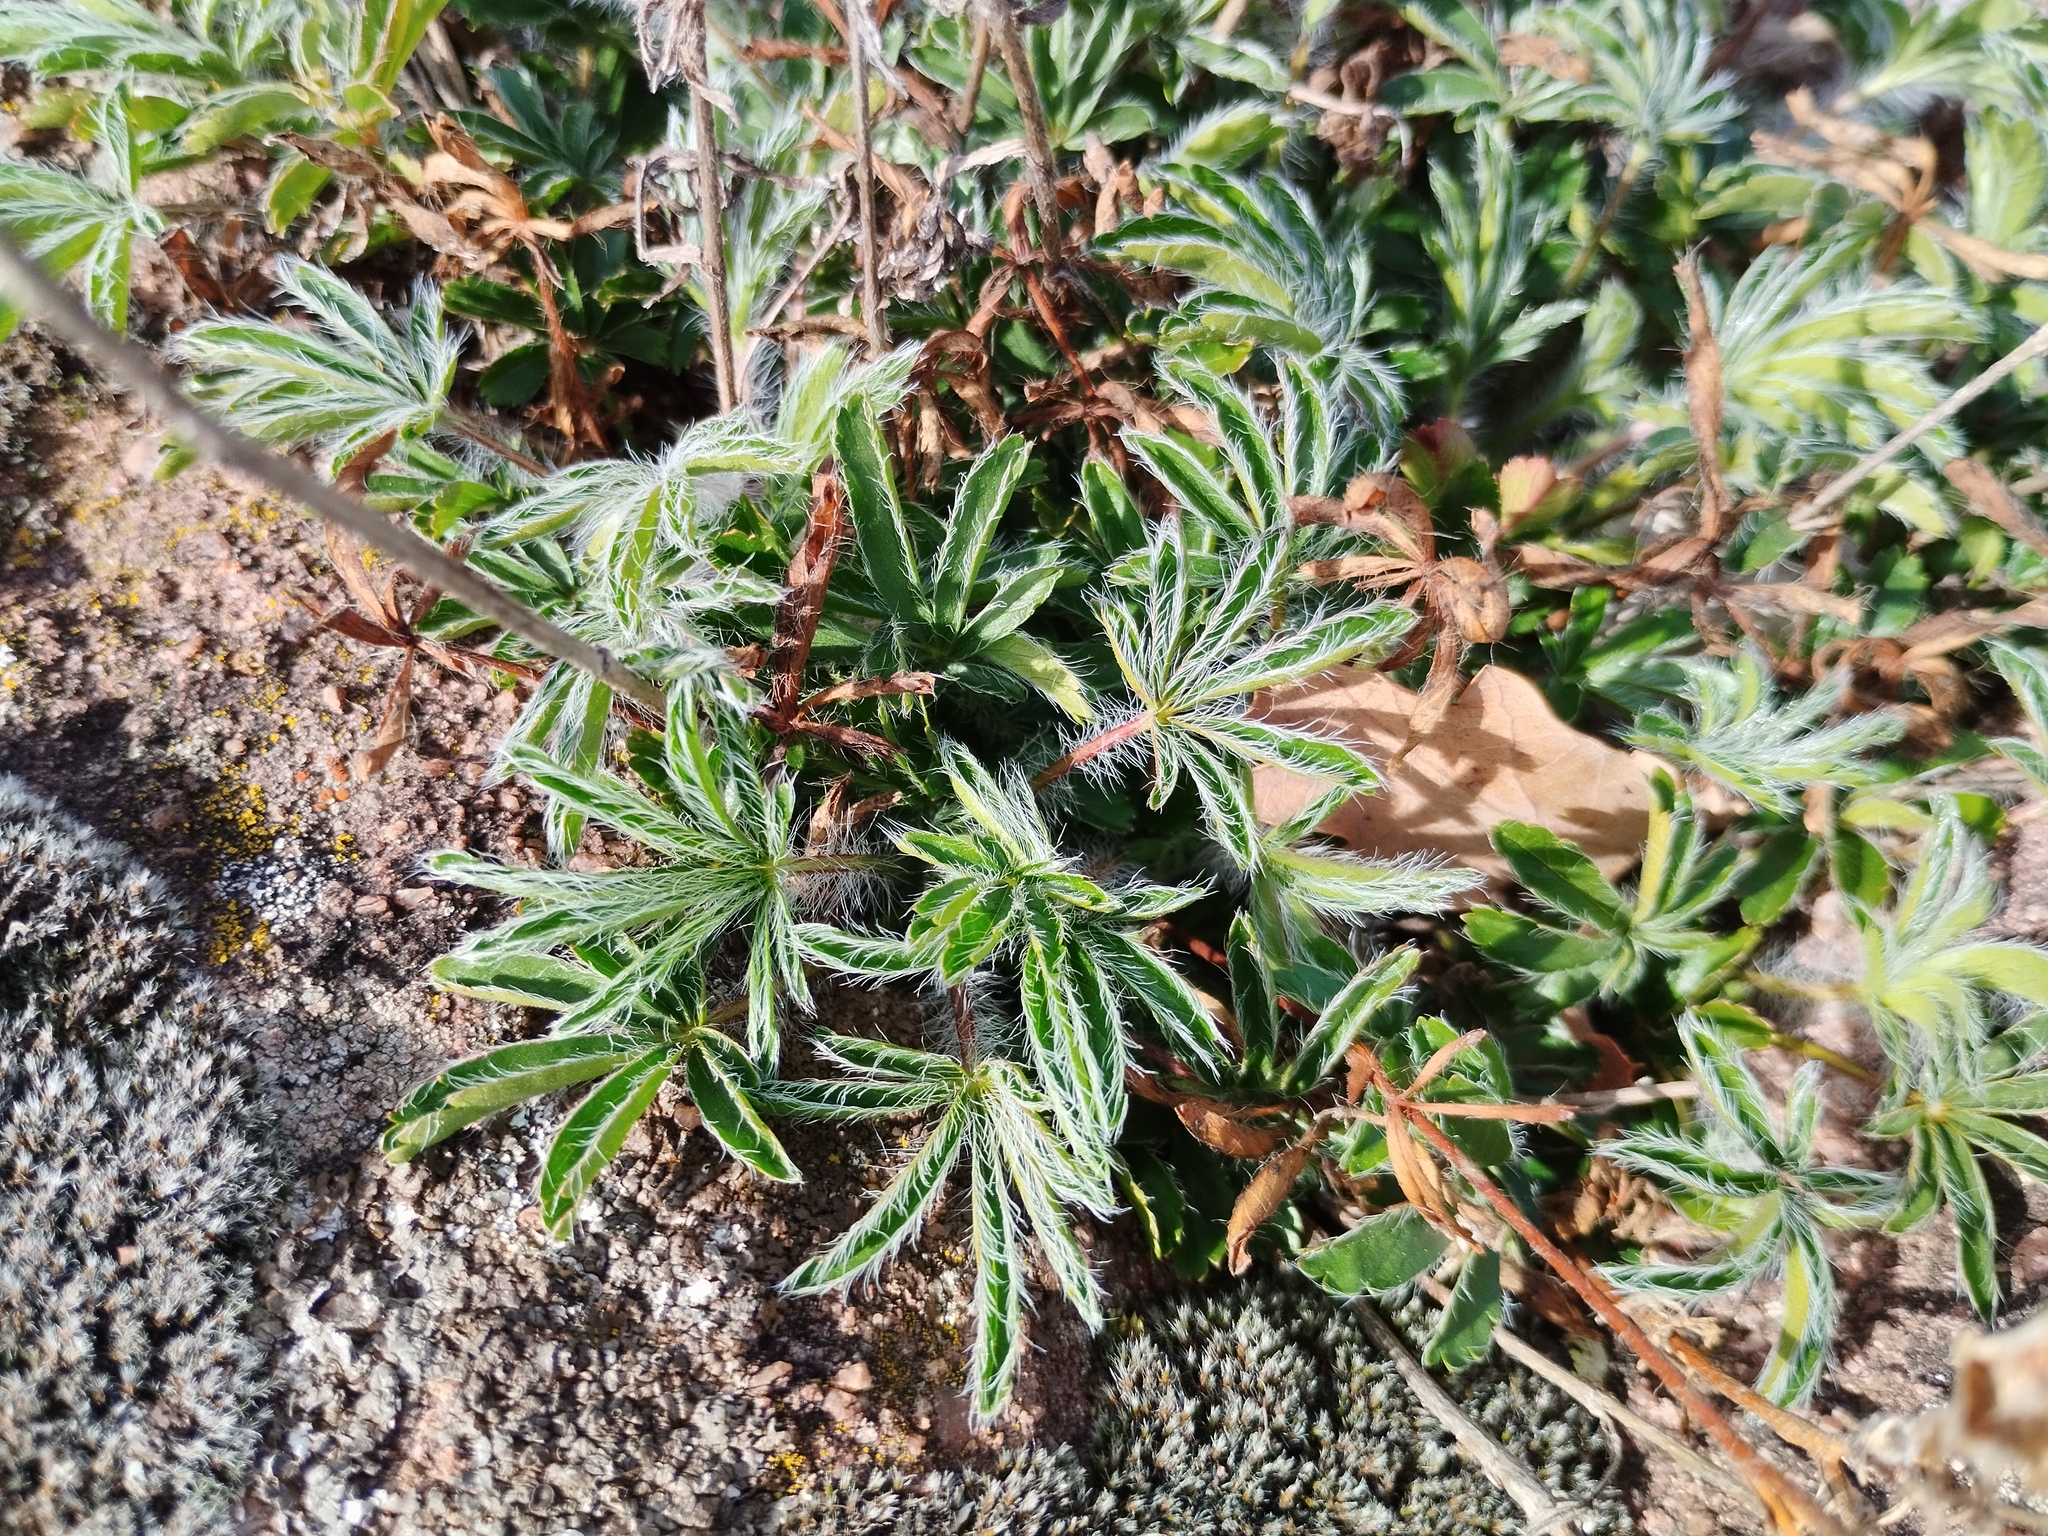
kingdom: Plantae
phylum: Tracheophyta
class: Magnoliopsida
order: Rosales
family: Rosaceae
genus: Potentilla
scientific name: Potentilla hirta
